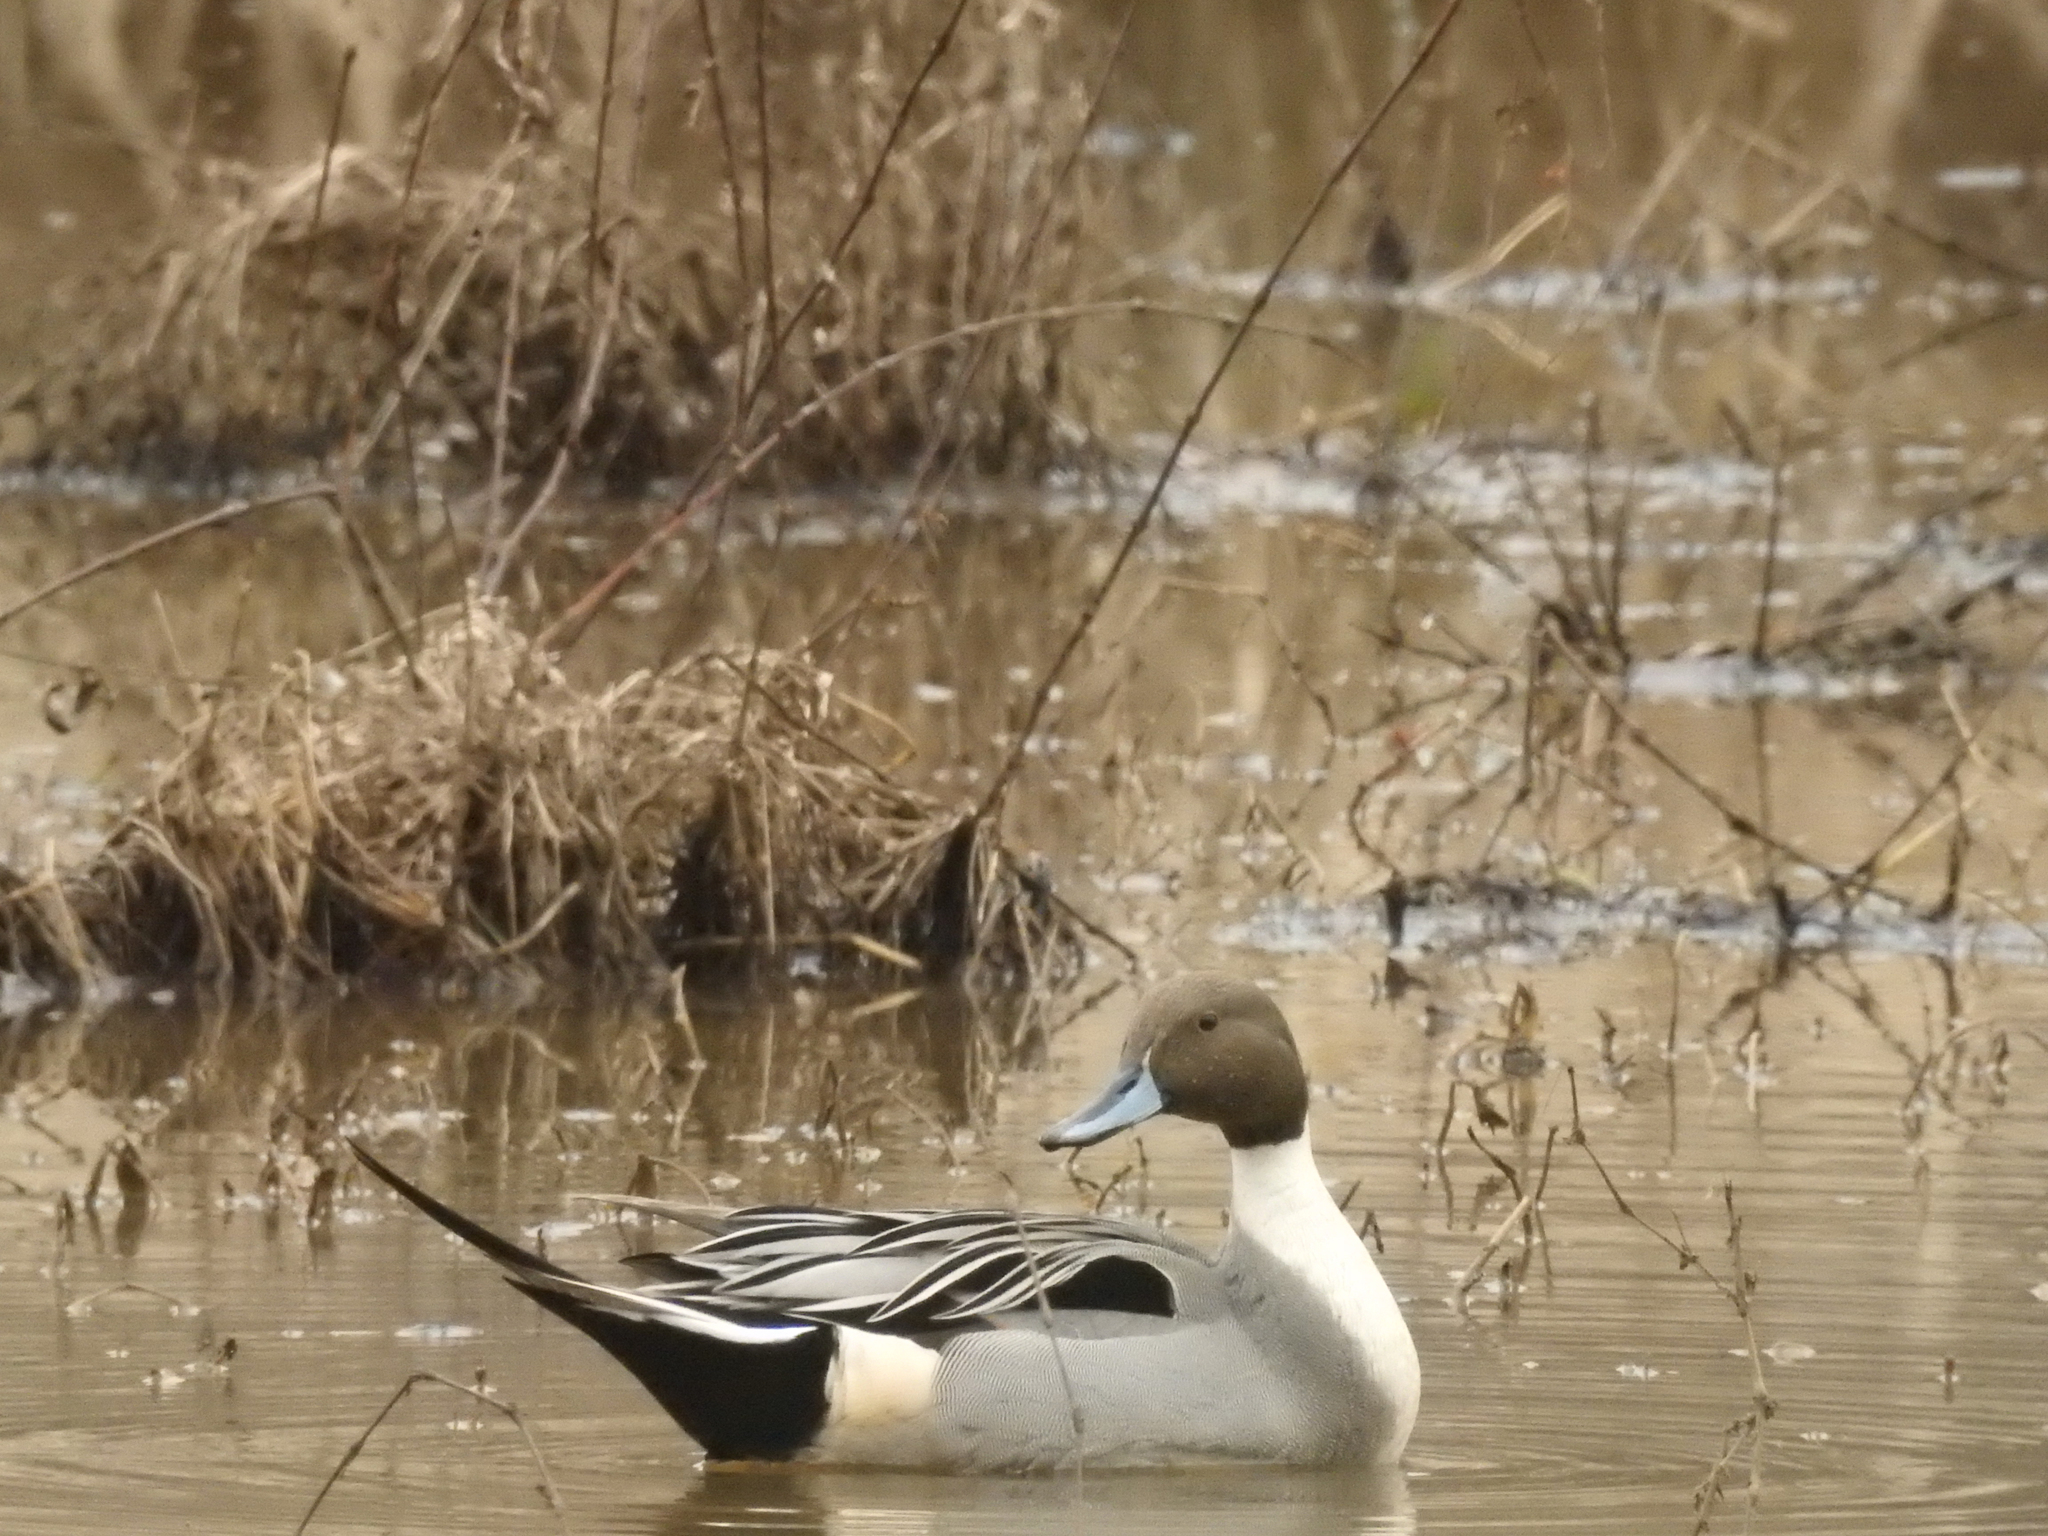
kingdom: Animalia
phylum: Chordata
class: Aves
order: Anseriformes
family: Anatidae
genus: Anas
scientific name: Anas acuta
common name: Northern pintail
